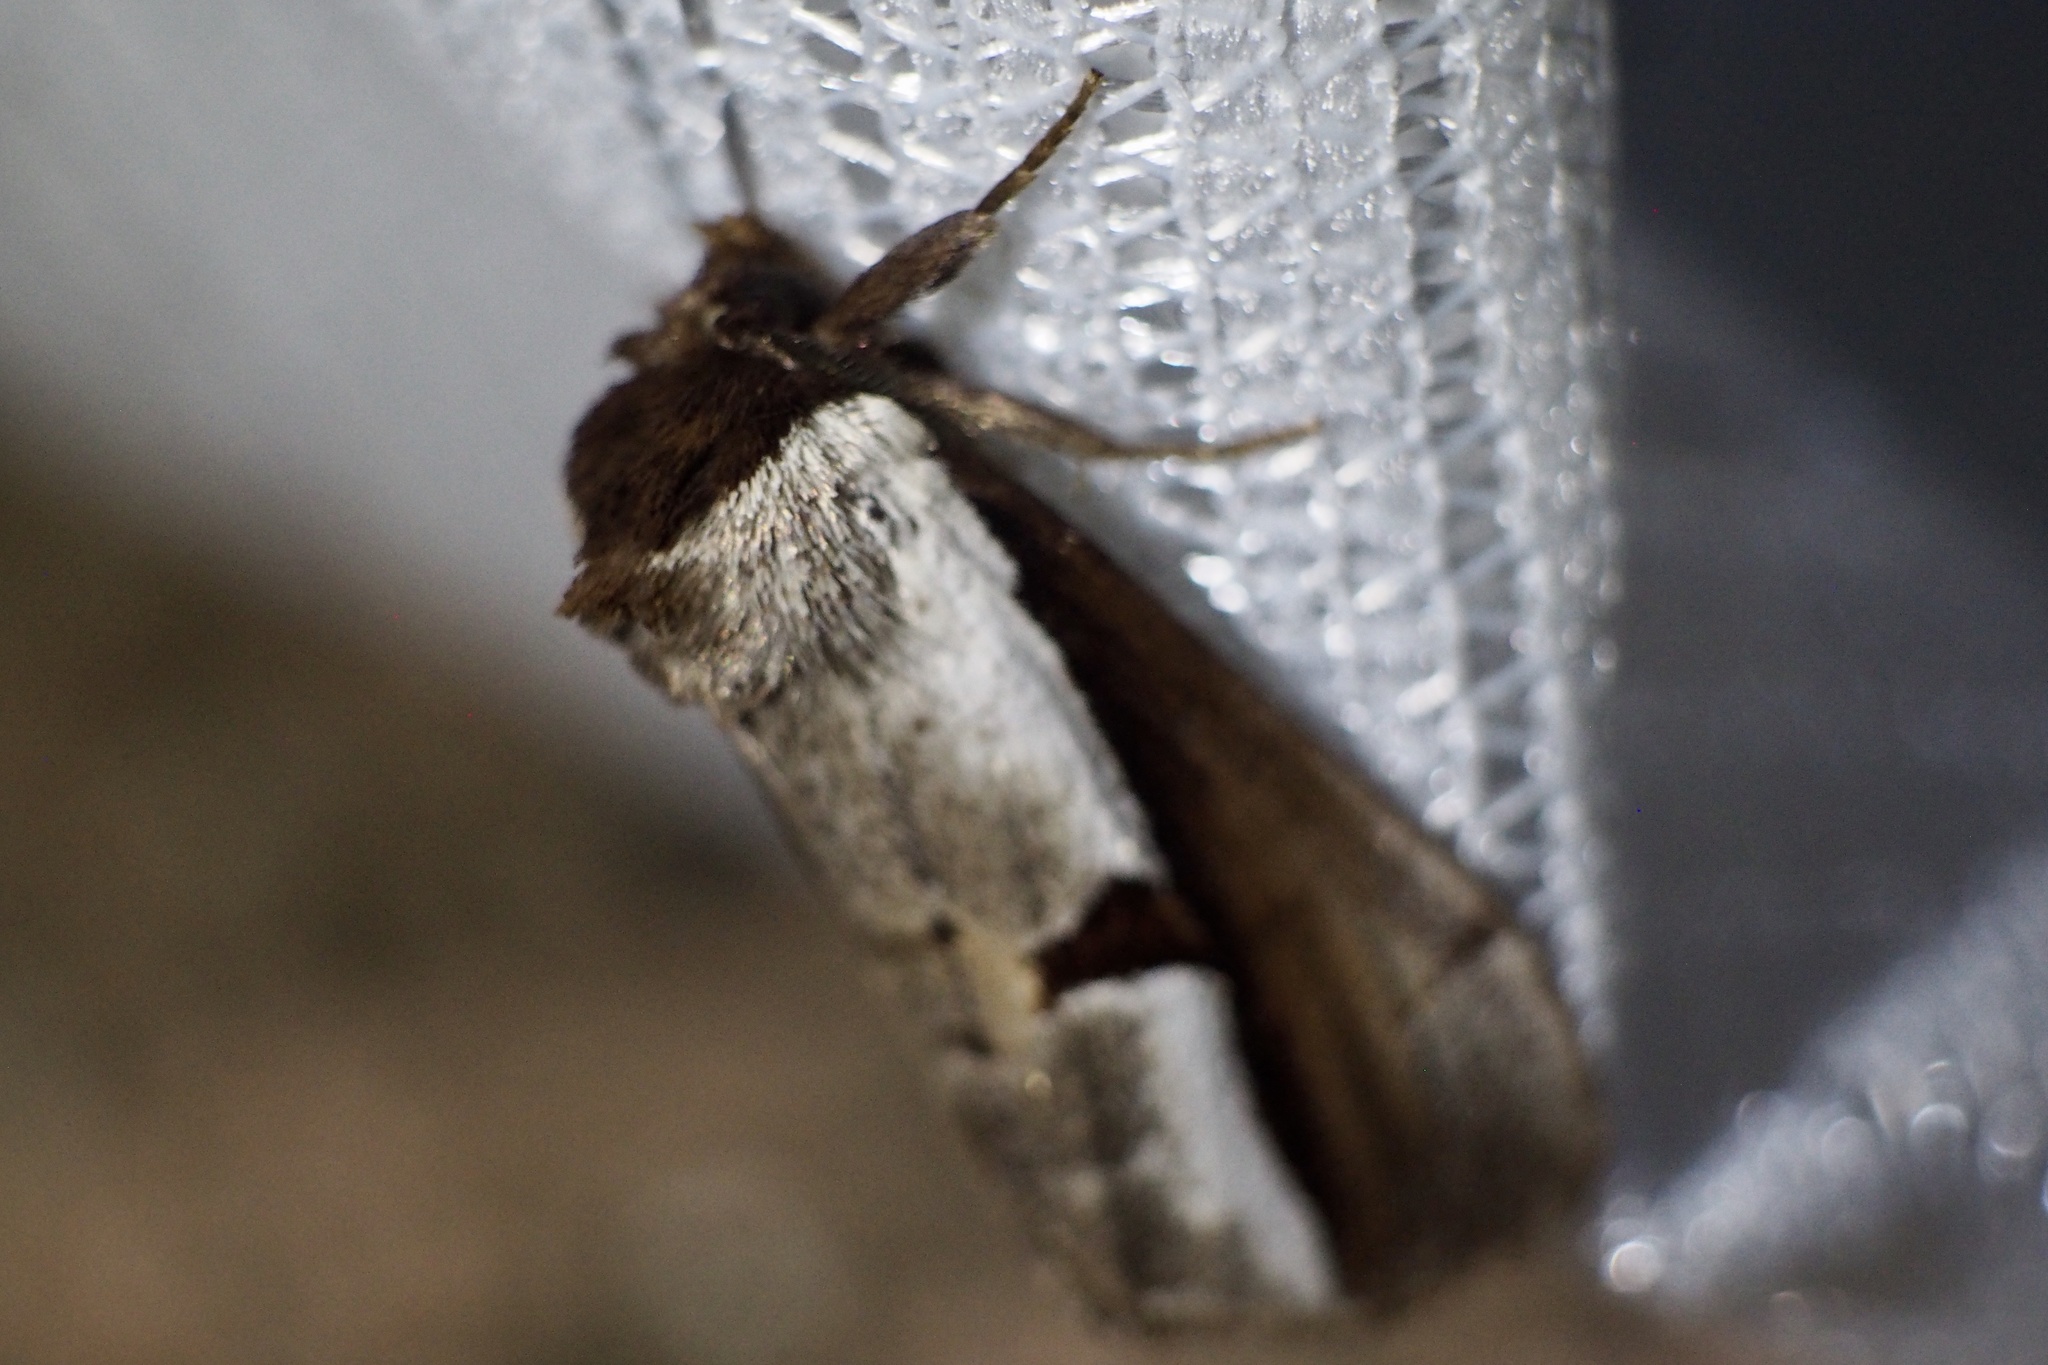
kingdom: Animalia
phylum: Arthropoda
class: Insecta
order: Lepidoptera
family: Notodontidae
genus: Nerice
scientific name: Nerice bipartita
